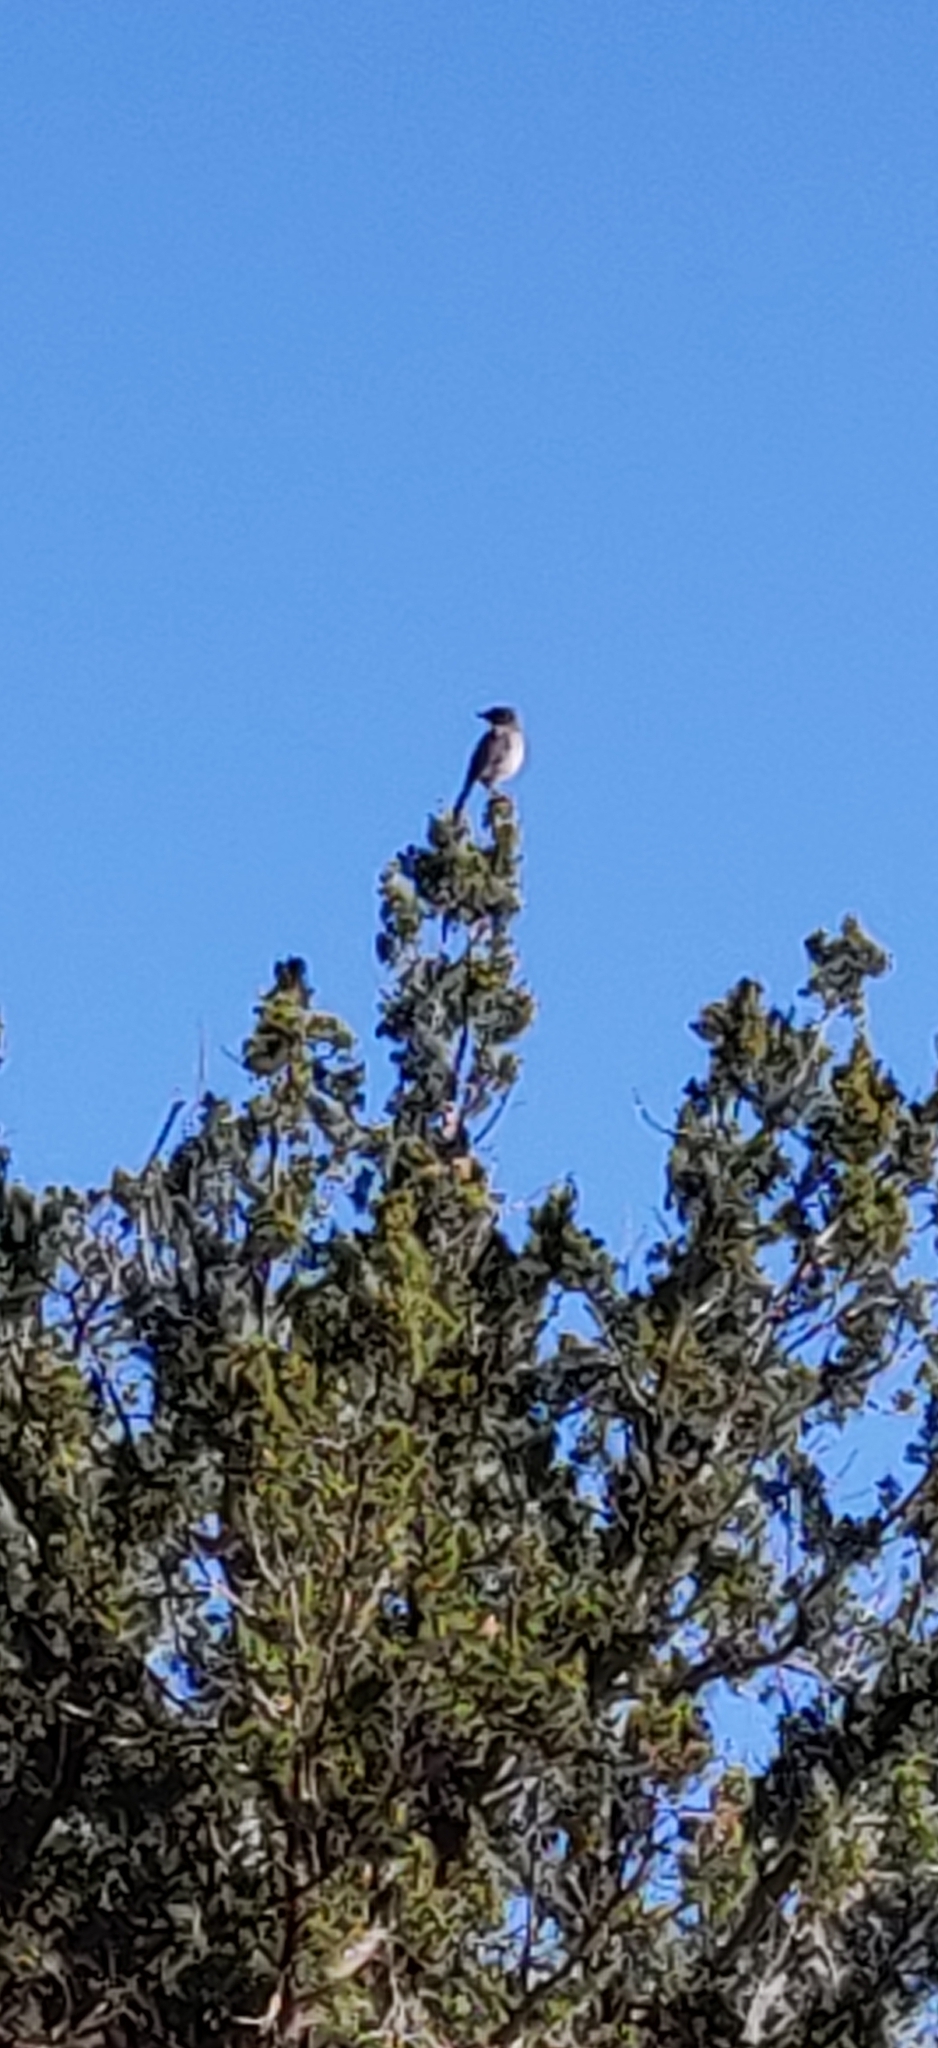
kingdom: Animalia
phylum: Chordata
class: Aves
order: Passeriformes
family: Corvidae
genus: Aphelocoma
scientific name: Aphelocoma woodhouseii
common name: Woodhouse's scrub-jay
